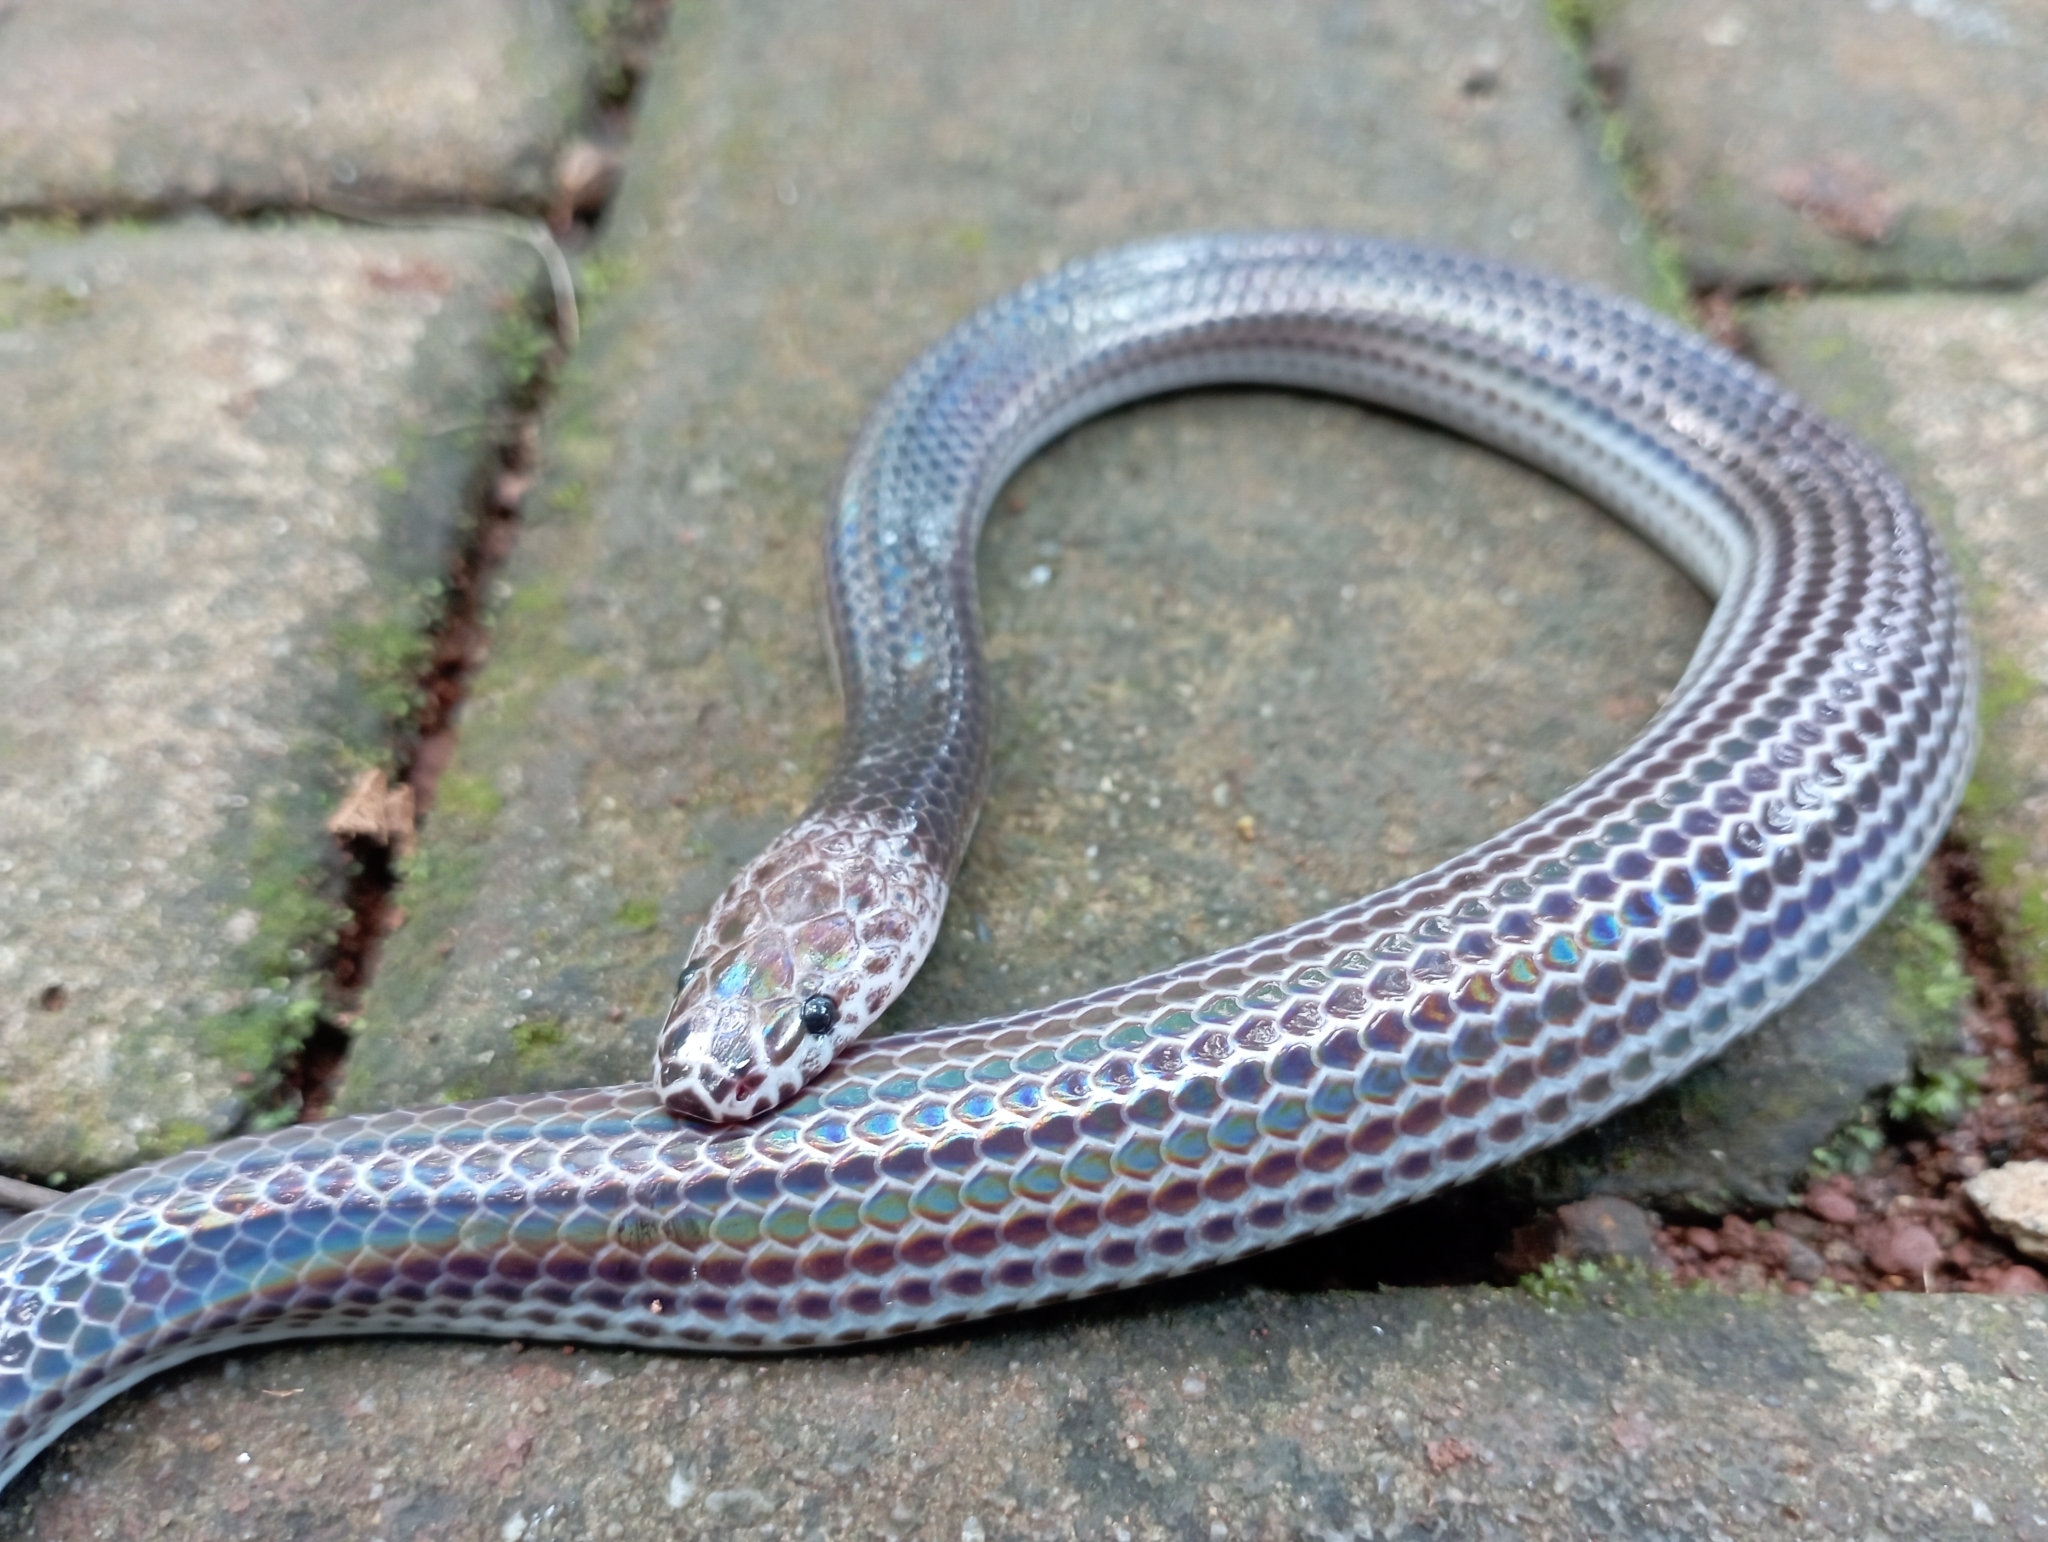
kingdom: Animalia
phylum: Chordata
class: Squamata
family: Xenopeltidae
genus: Xenopeltis
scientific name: Xenopeltis unicolor
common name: Sunbeam snake
